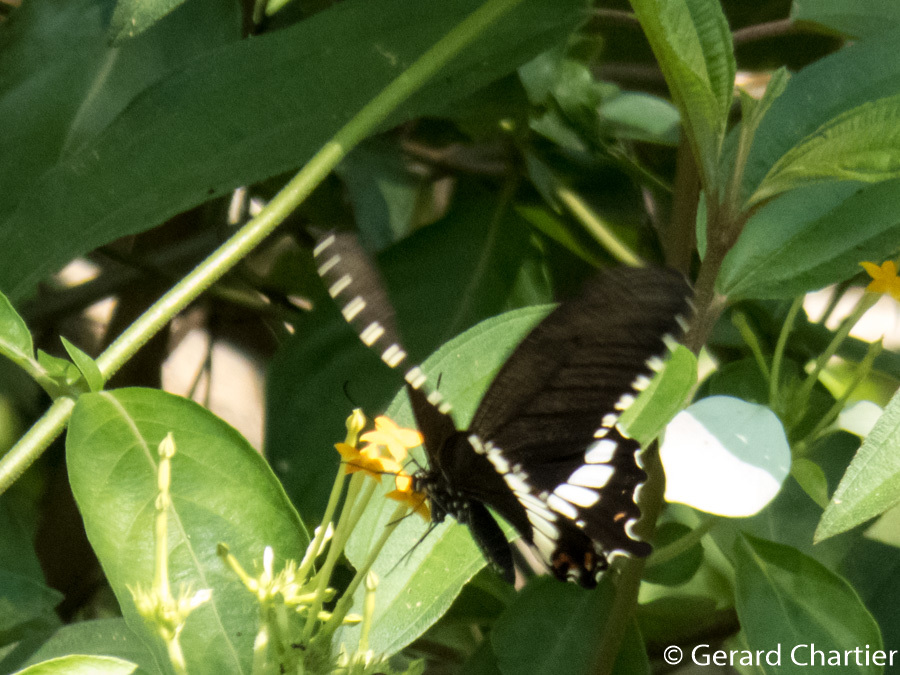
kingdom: Animalia
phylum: Arthropoda
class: Insecta
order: Lepidoptera
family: Papilionidae
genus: Papilio
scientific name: Papilio polytes
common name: Common mormon
